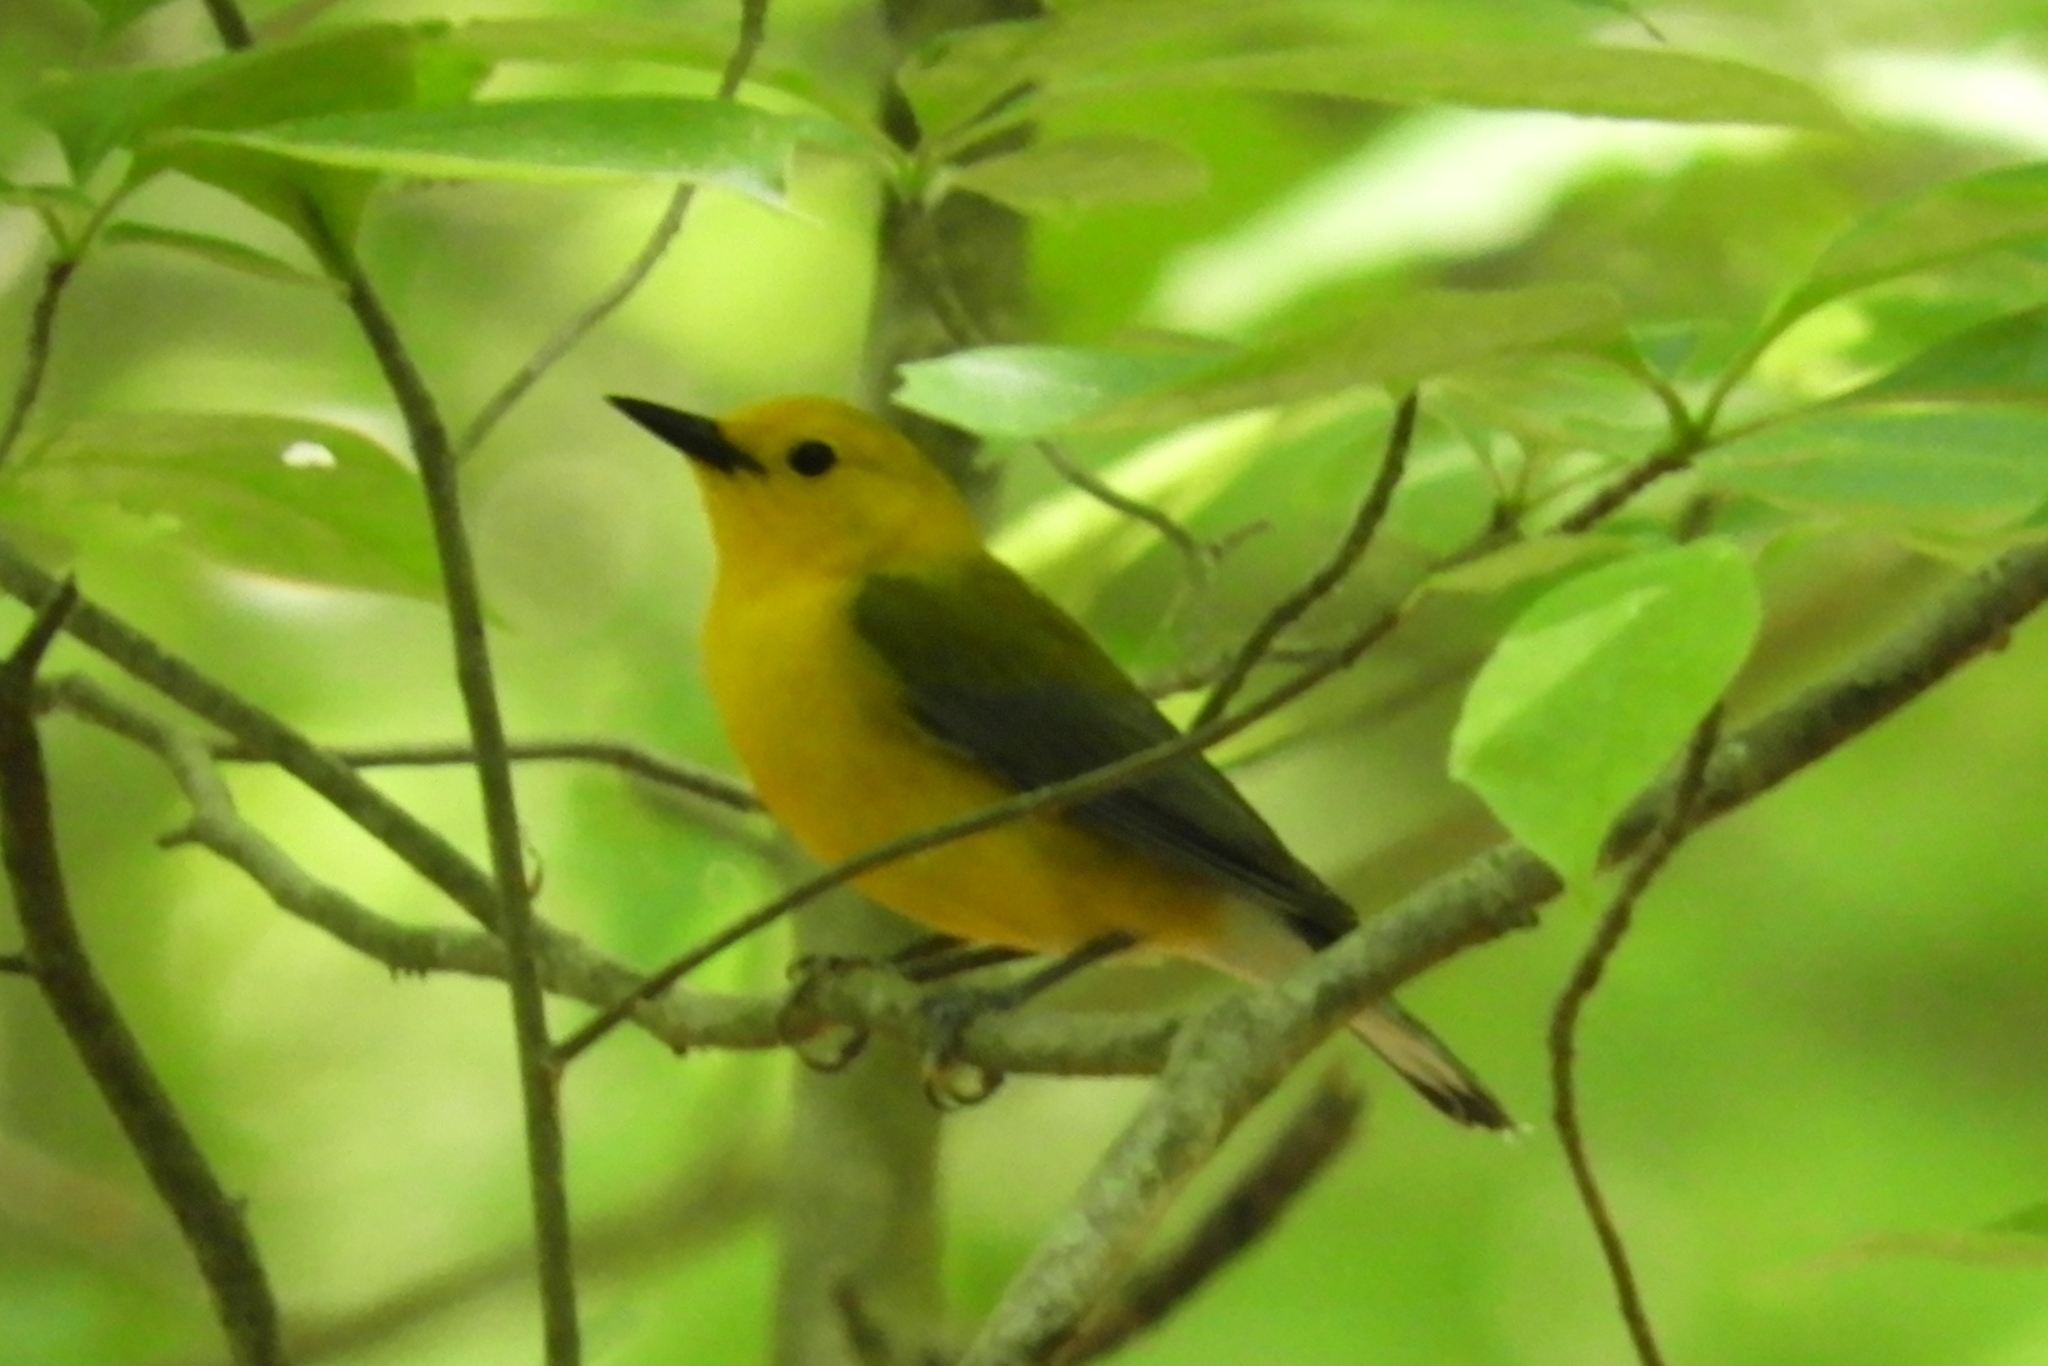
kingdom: Animalia
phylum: Chordata
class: Aves
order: Passeriformes
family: Parulidae
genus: Protonotaria
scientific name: Protonotaria citrea
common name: Prothonotary warbler
